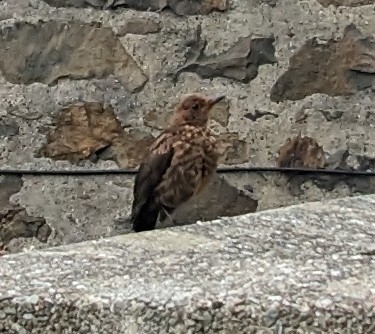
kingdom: Animalia
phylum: Chordata
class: Aves
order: Passeriformes
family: Turdidae
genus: Turdus
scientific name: Turdus merula
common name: Common blackbird
